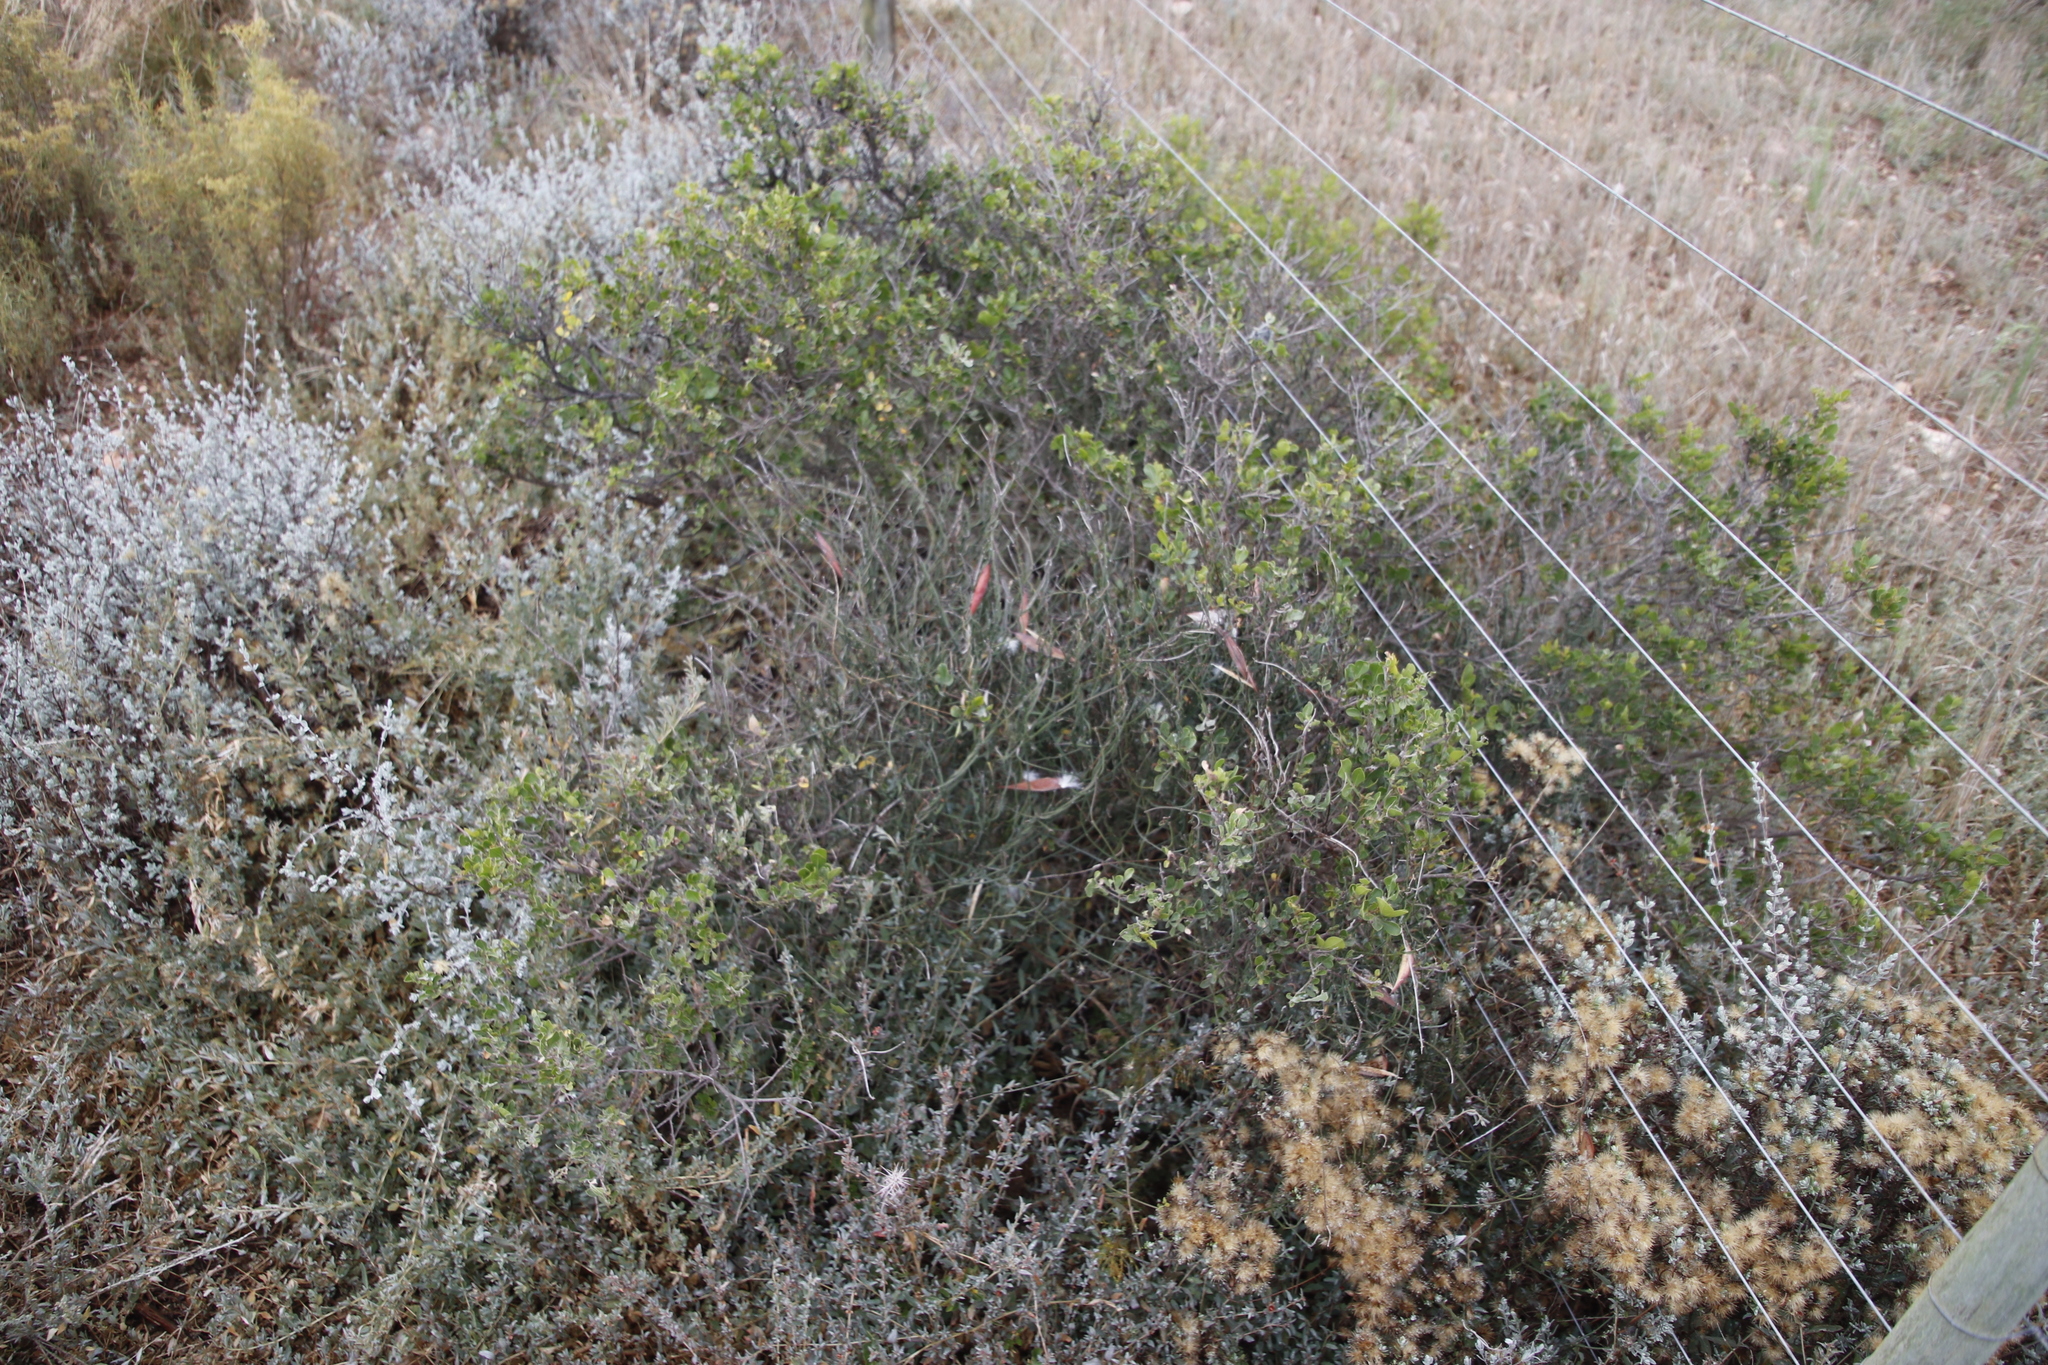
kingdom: Plantae
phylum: Tracheophyta
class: Magnoliopsida
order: Gentianales
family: Apocynaceae
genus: Microloma
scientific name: Microloma sagittatum
